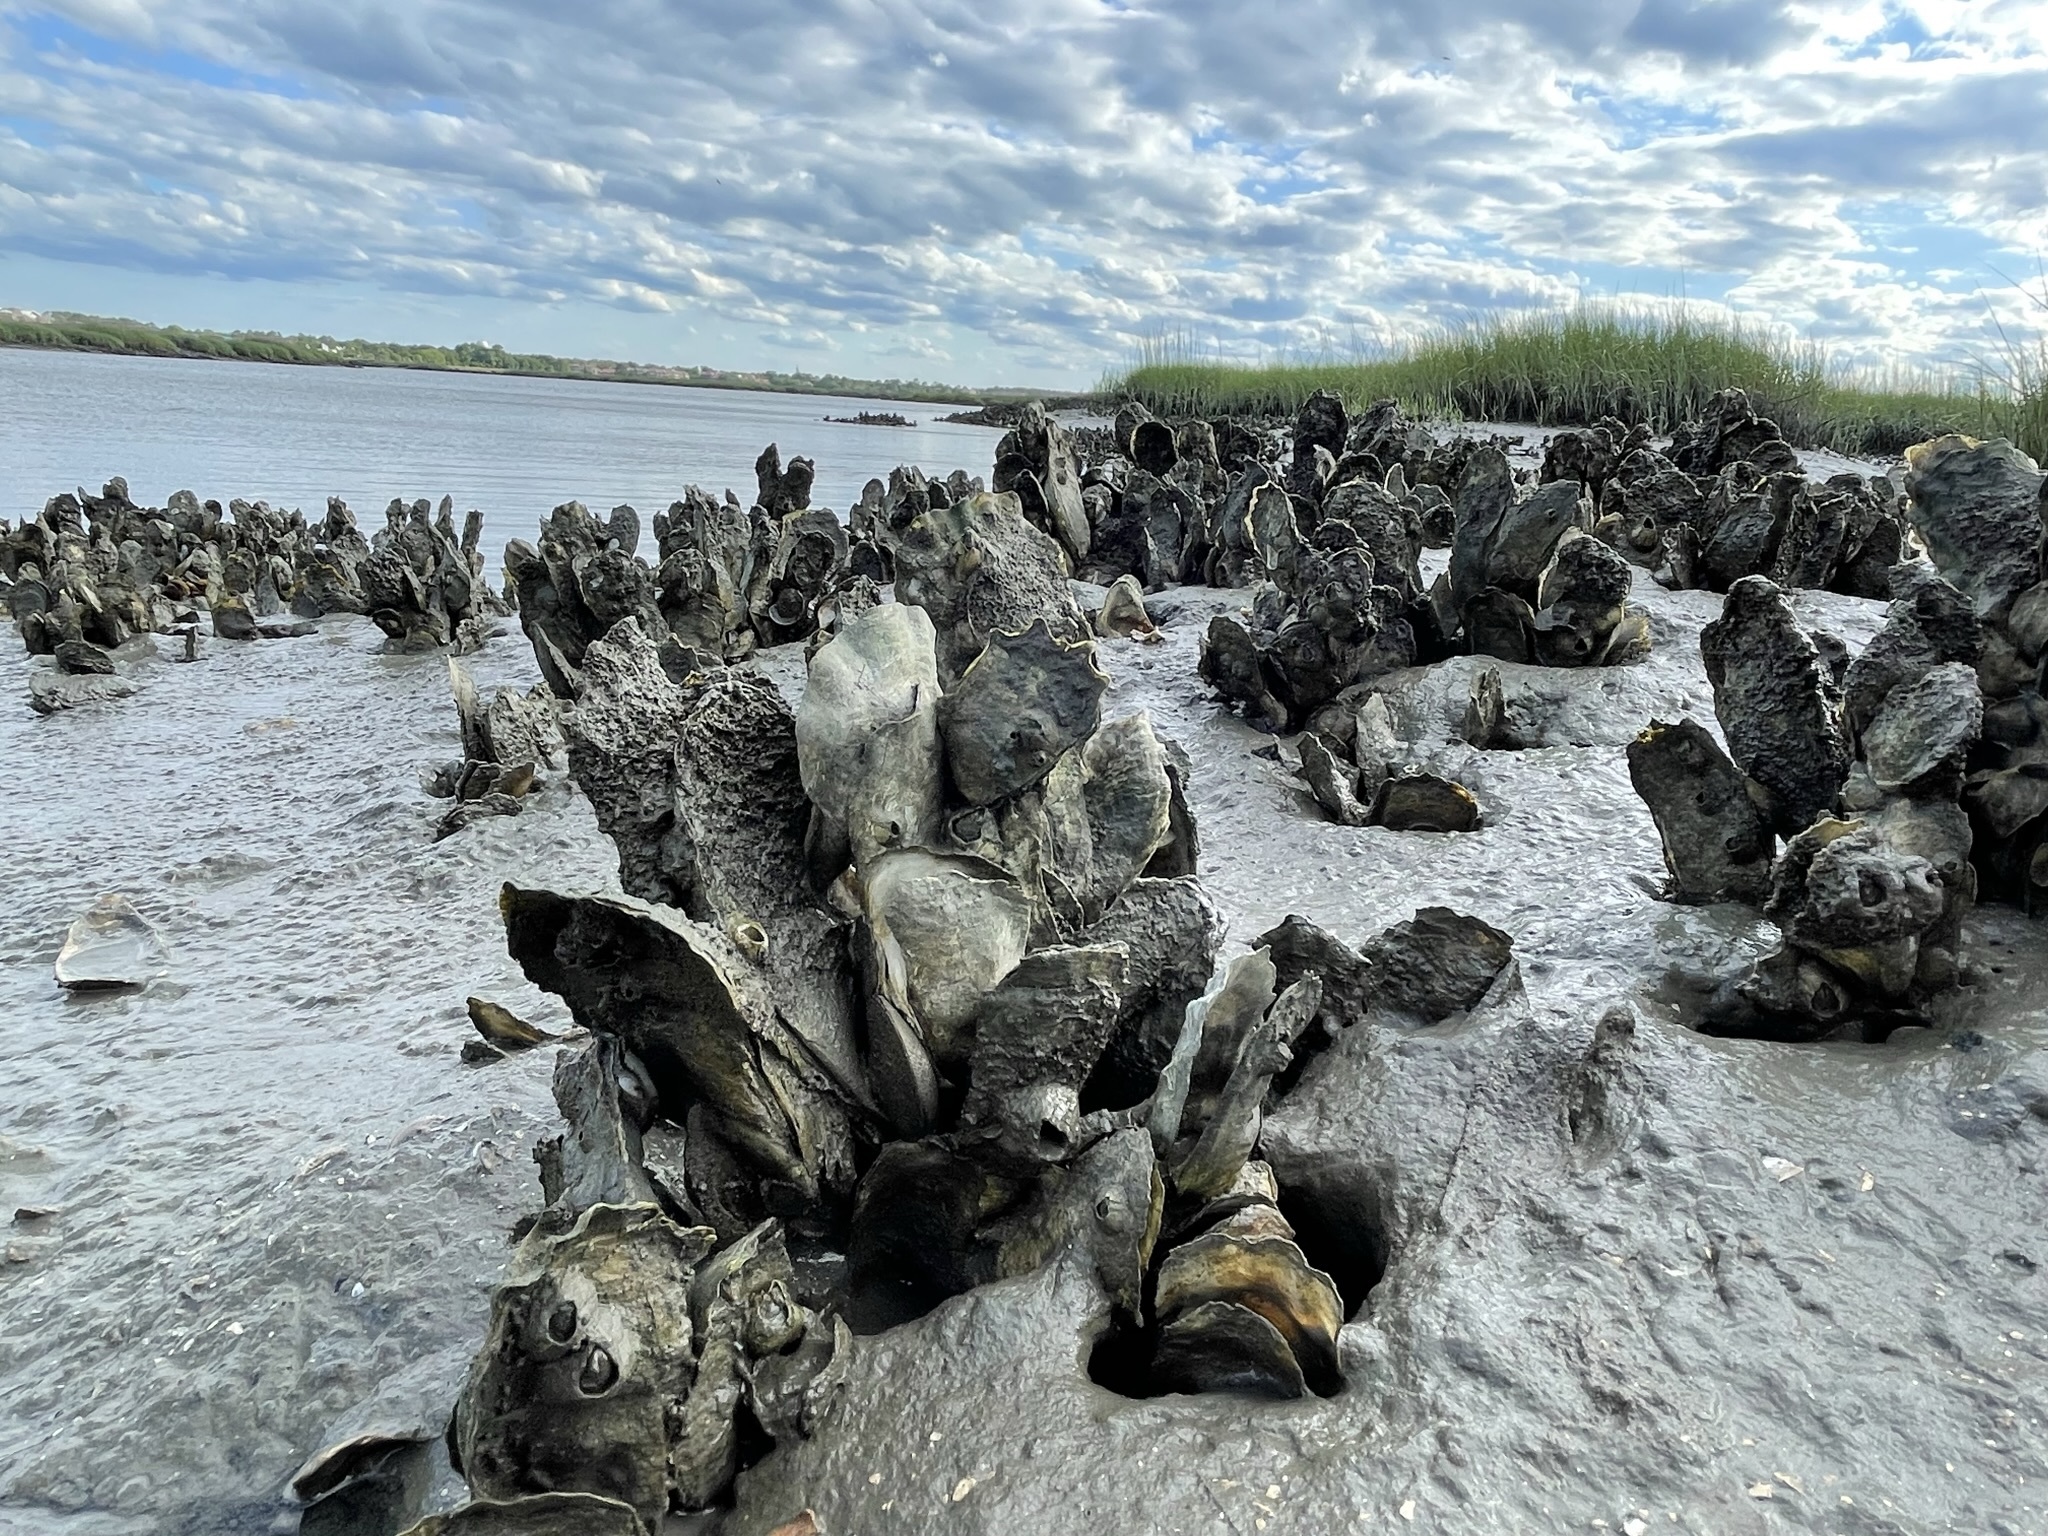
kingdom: Animalia
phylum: Mollusca
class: Bivalvia
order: Ostreida
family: Ostreidae
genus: Crassostrea
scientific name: Crassostrea virginica
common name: American oyster
